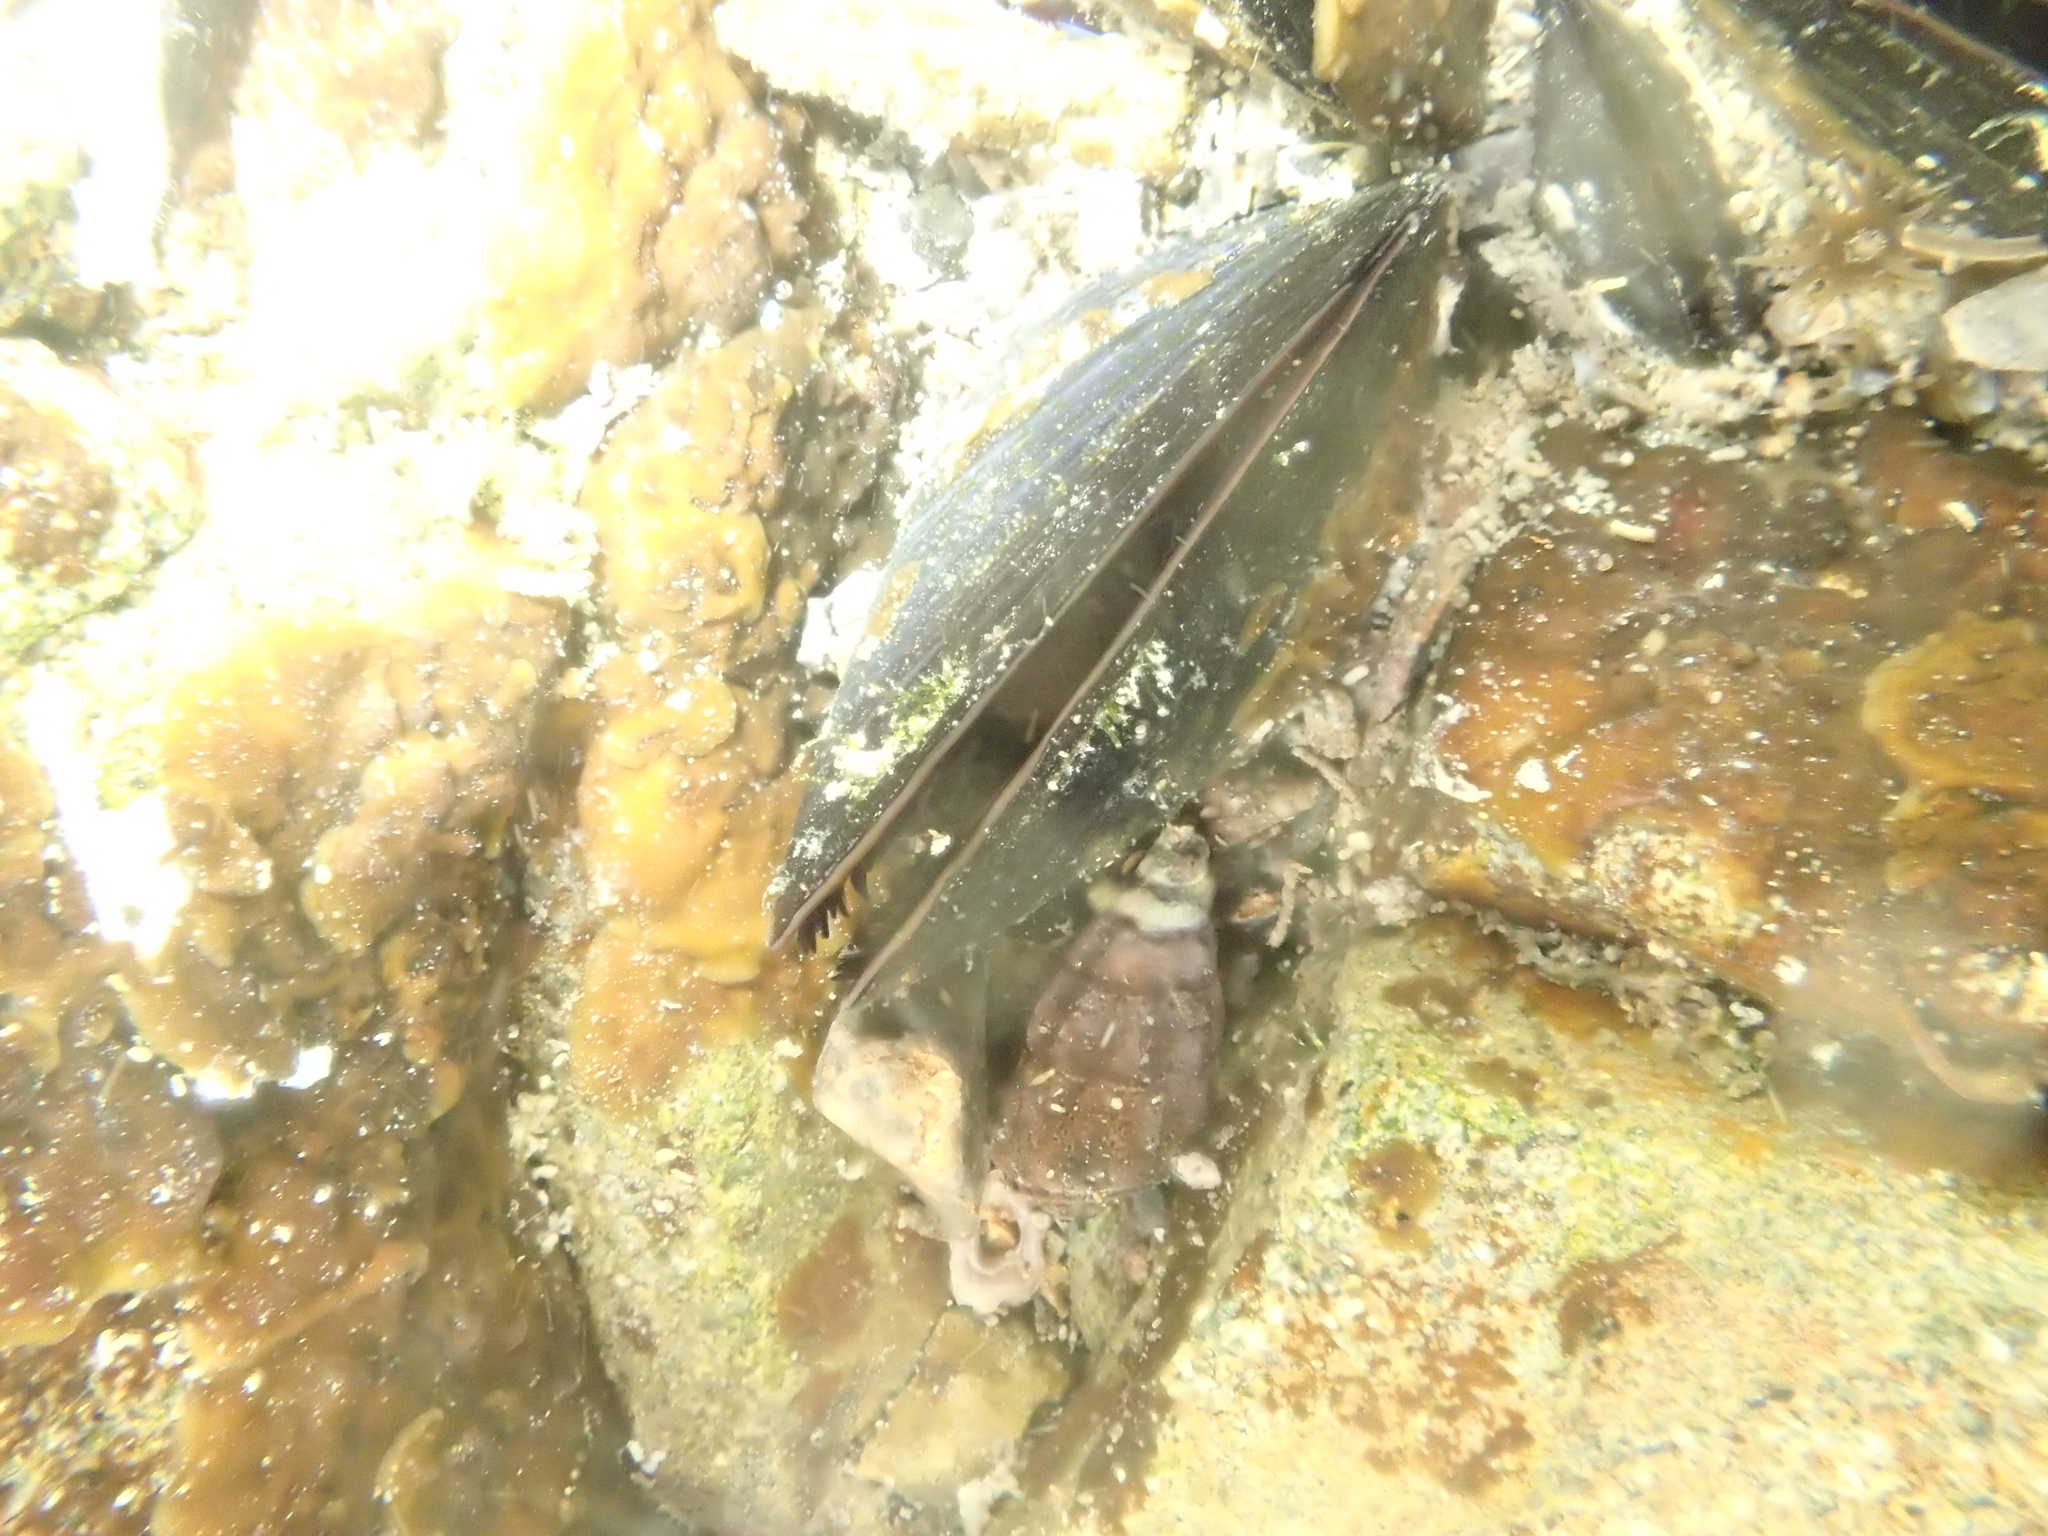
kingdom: Animalia
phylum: Mollusca
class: Bivalvia
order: Mytilida
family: Mytilidae
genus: Perna
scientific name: Perna canaliculus
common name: New zealand greenshelltm
